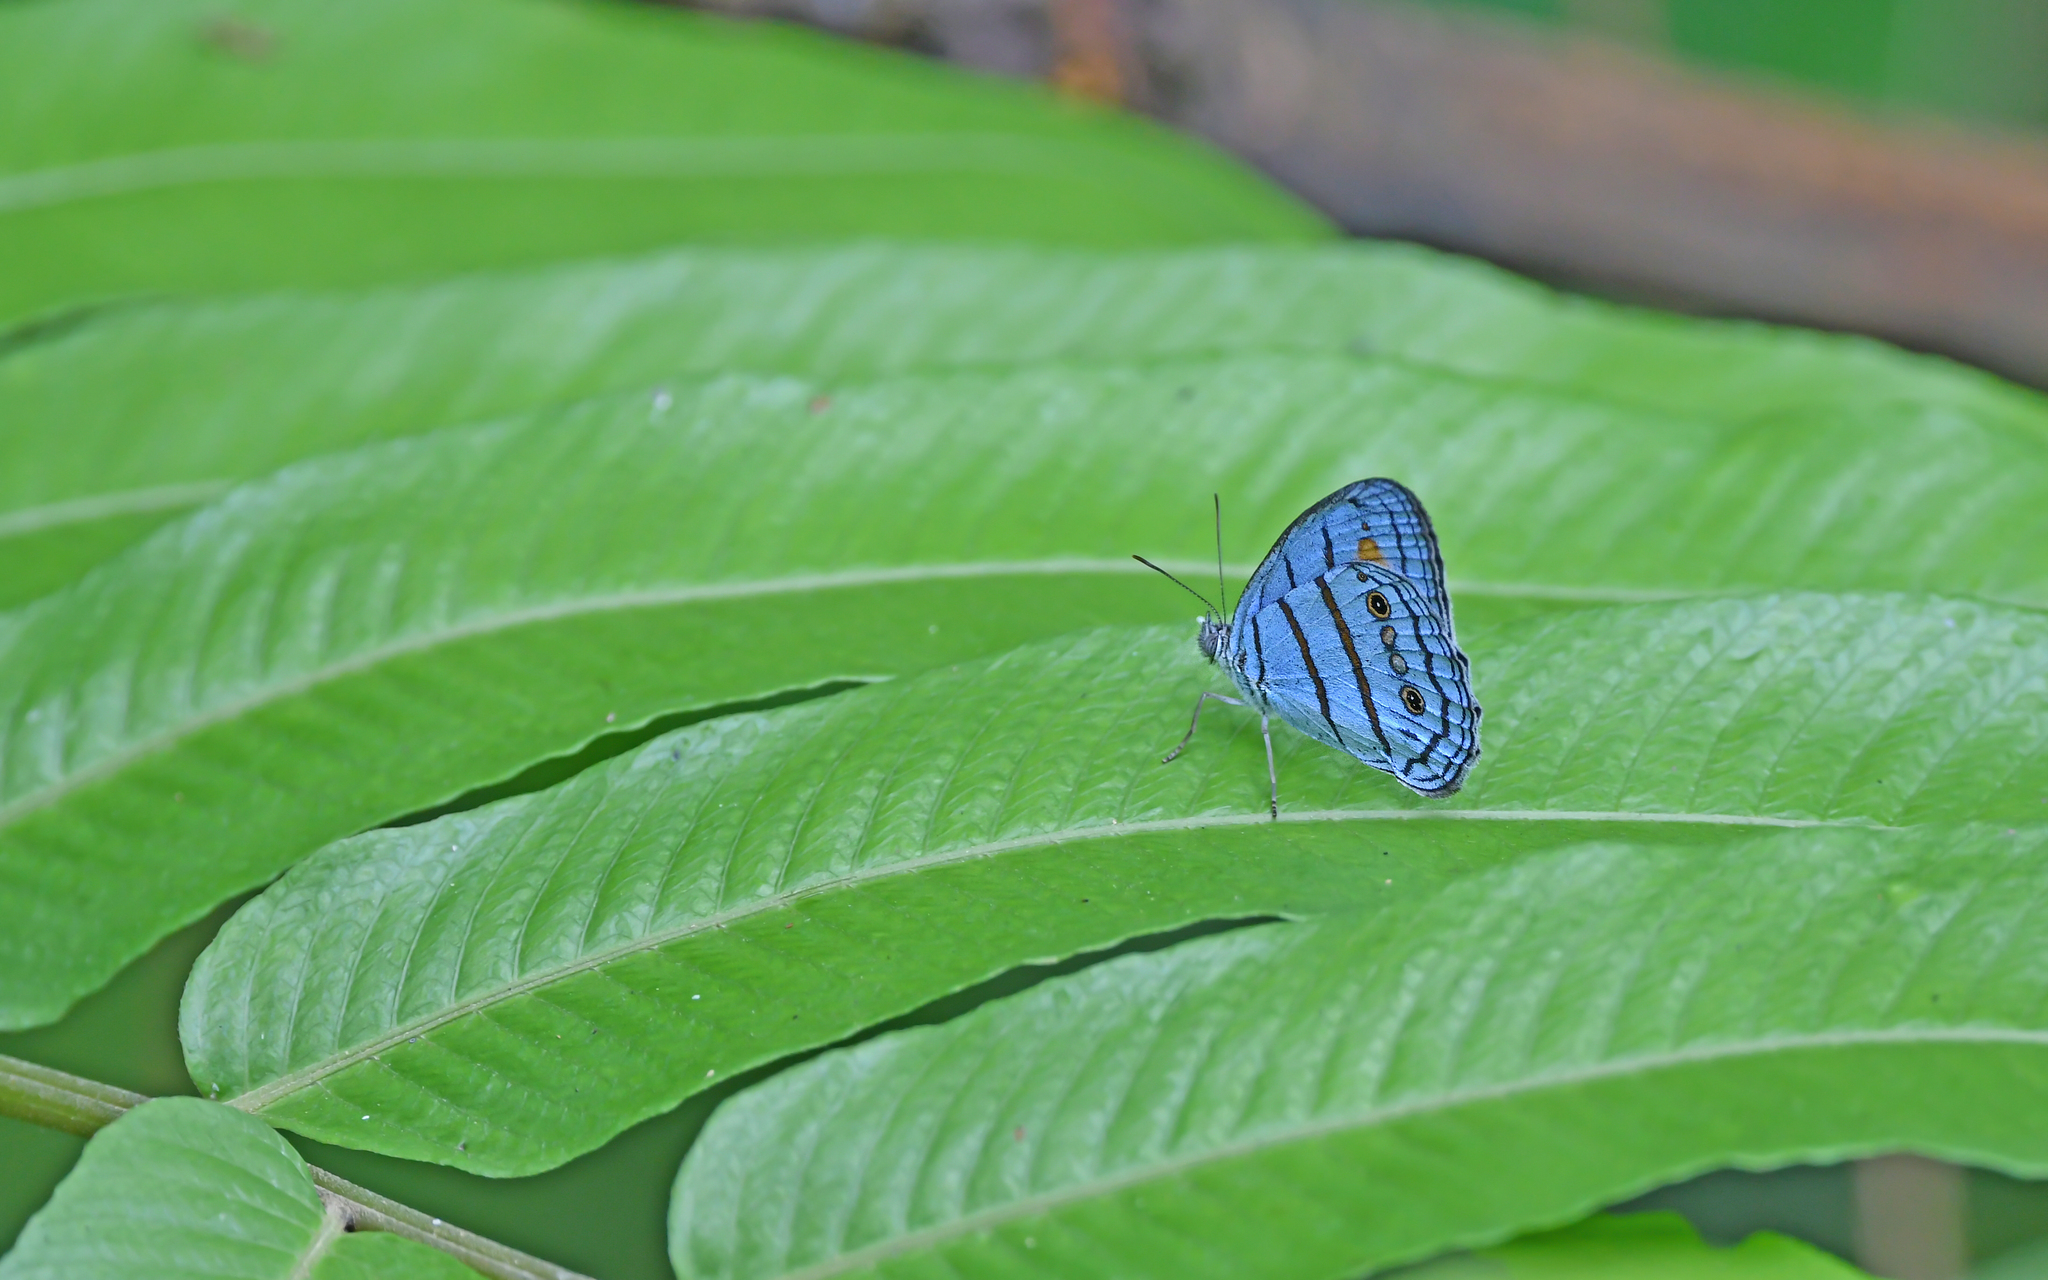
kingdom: Animalia
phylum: Arthropoda
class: Insecta
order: Lepidoptera
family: Nymphalidae
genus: Caeruleuptychia
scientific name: Caeruleuptychia helios
